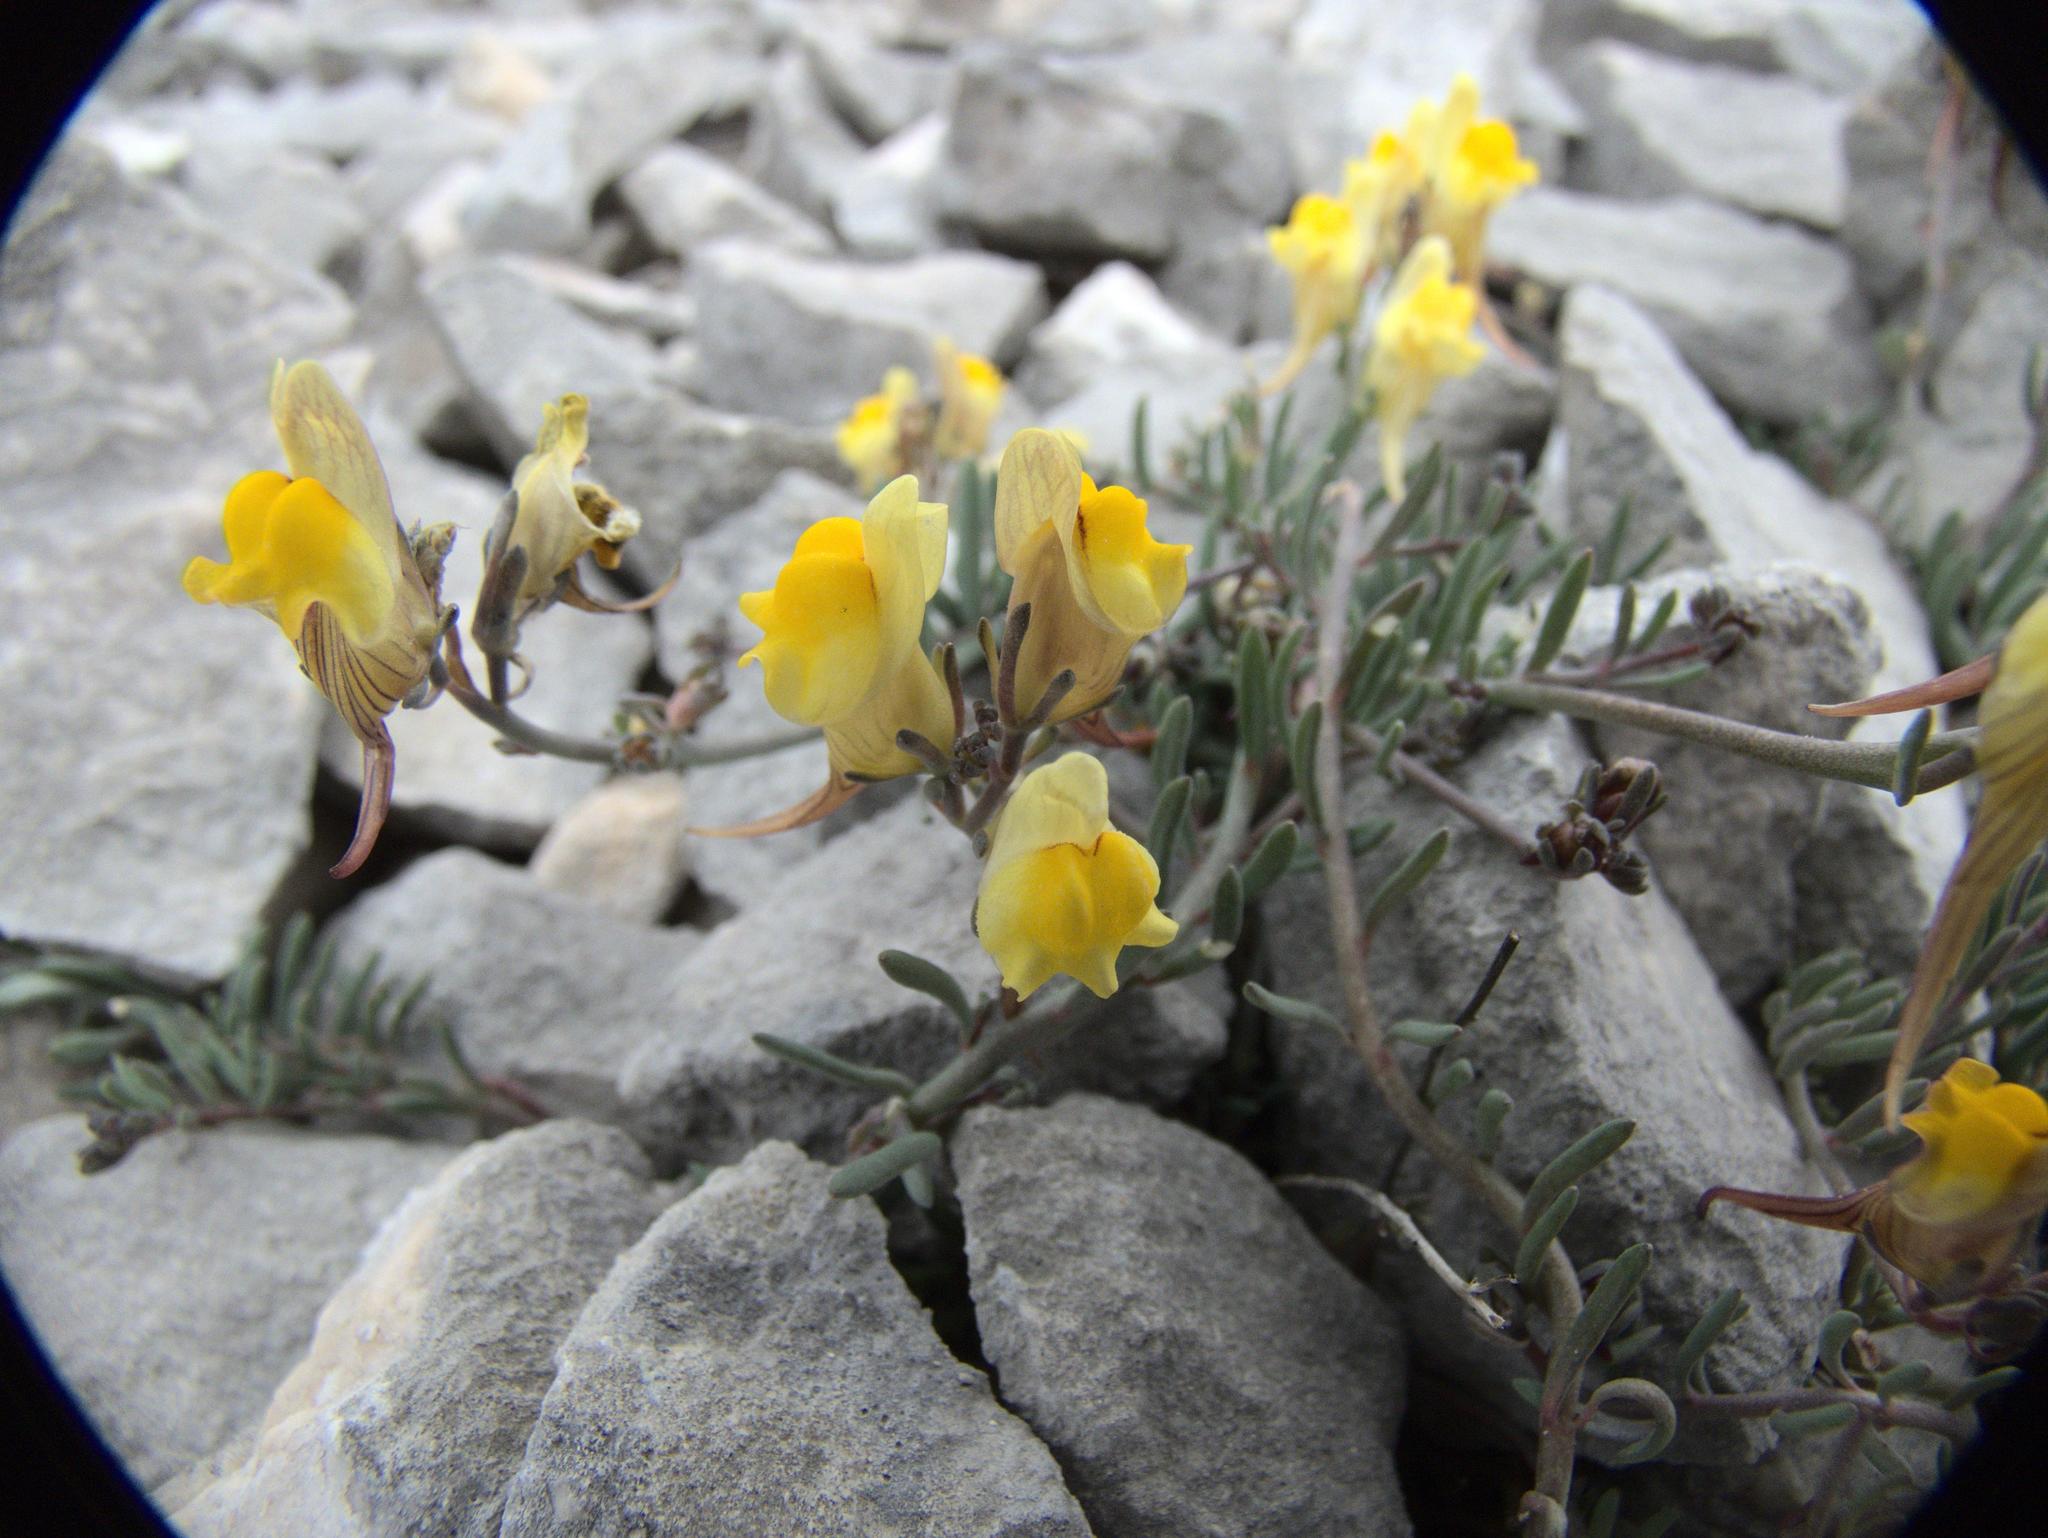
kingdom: Plantae
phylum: Tracheophyta
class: Magnoliopsida
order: Lamiales
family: Plantaginaceae
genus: Linaria
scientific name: Linaria supina
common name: Prostrate toadflax
